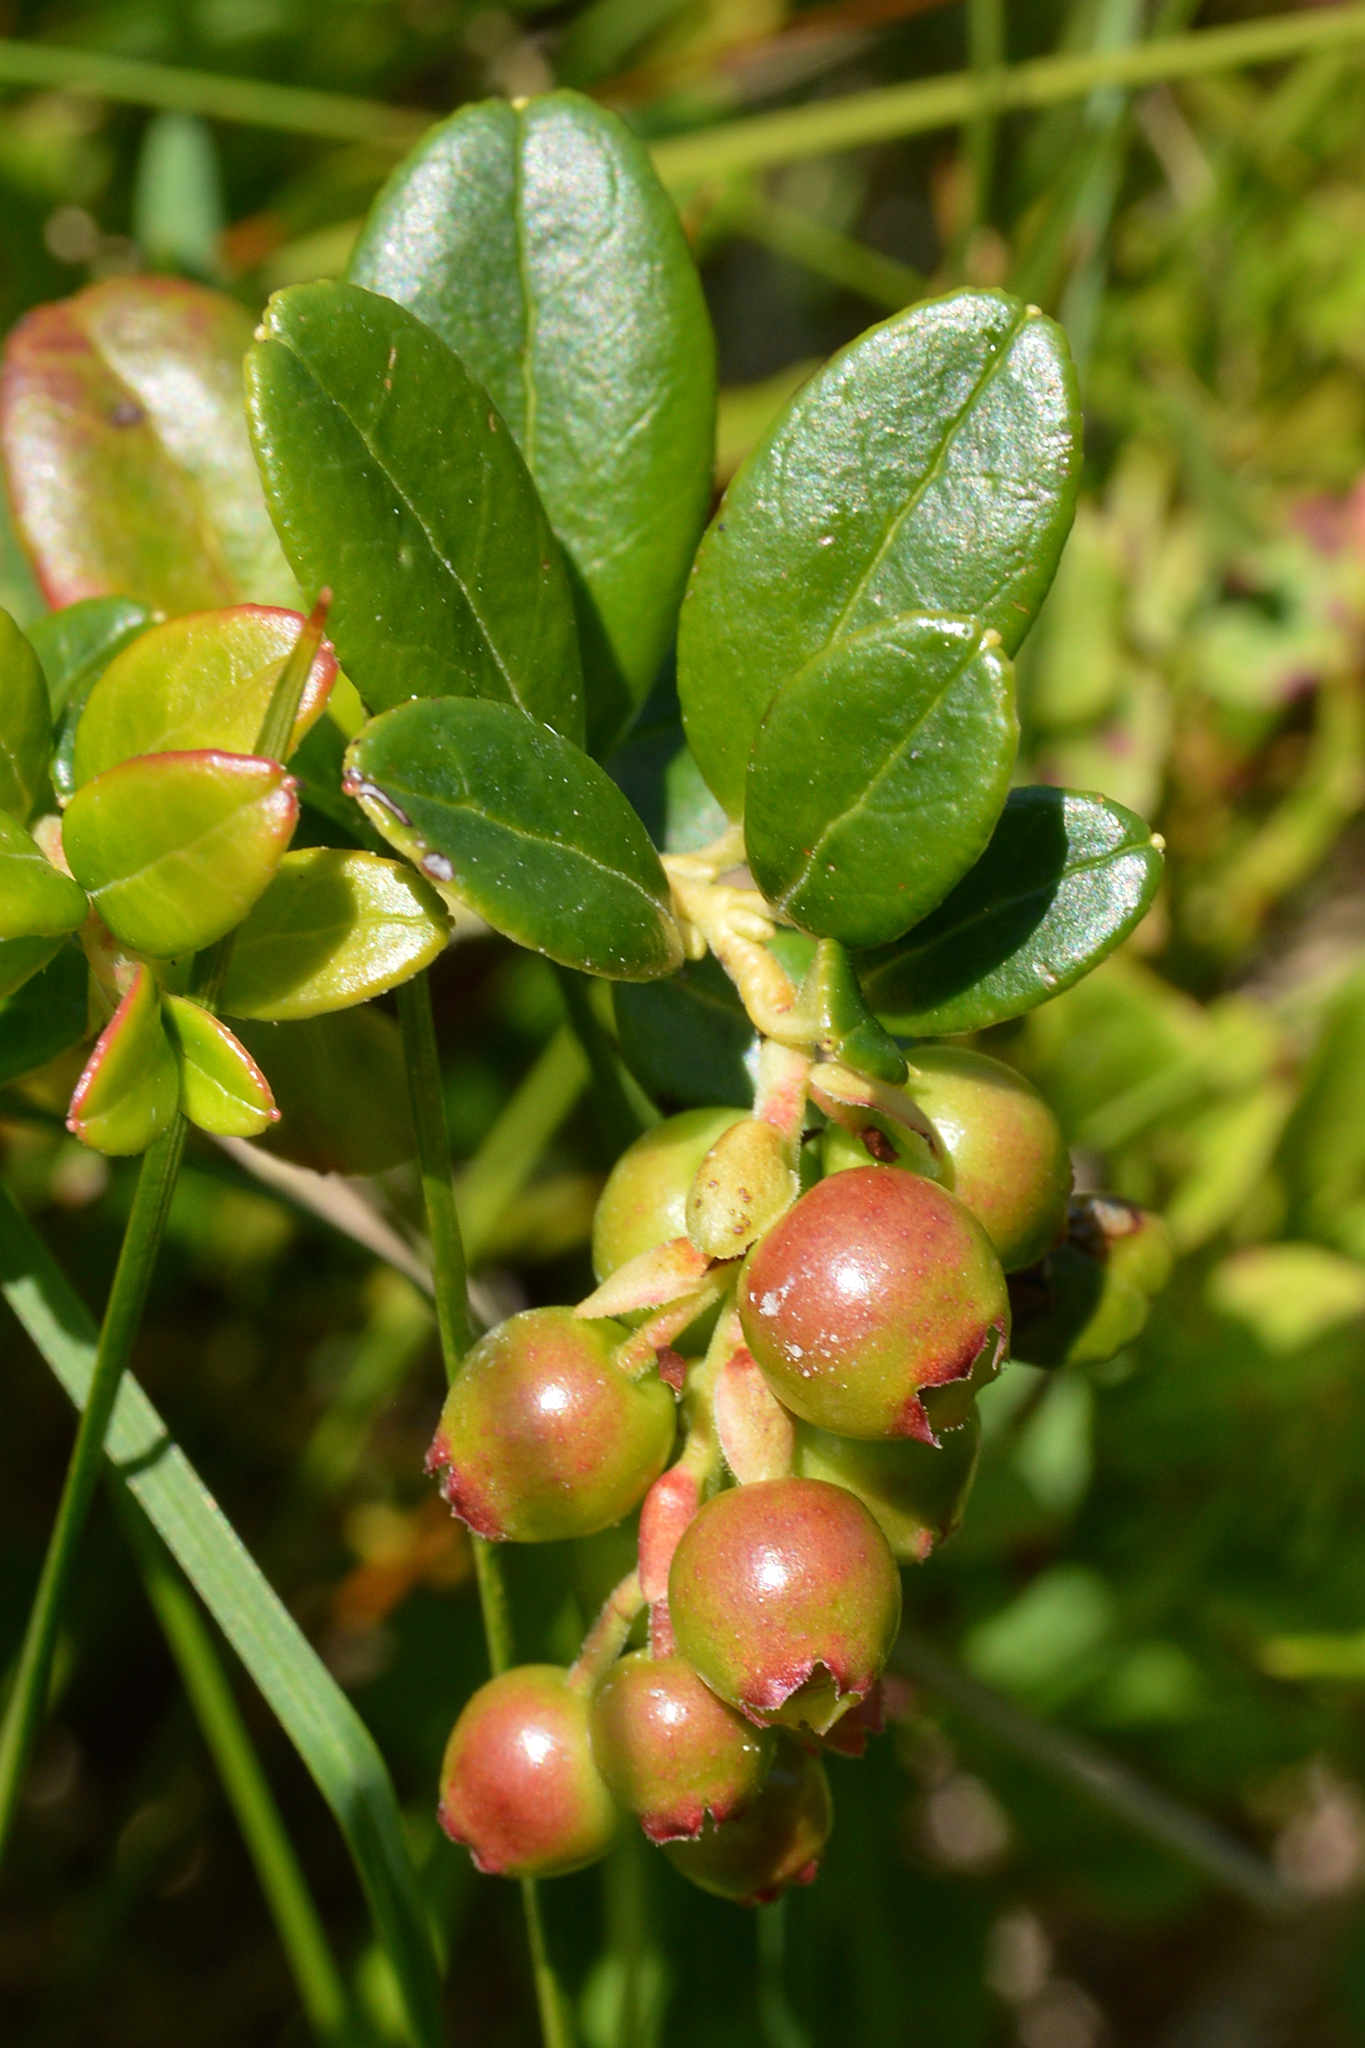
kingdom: Plantae
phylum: Tracheophyta
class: Magnoliopsida
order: Ericales
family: Ericaceae
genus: Vaccinium
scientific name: Vaccinium vitis-idaea
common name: Cowberry
